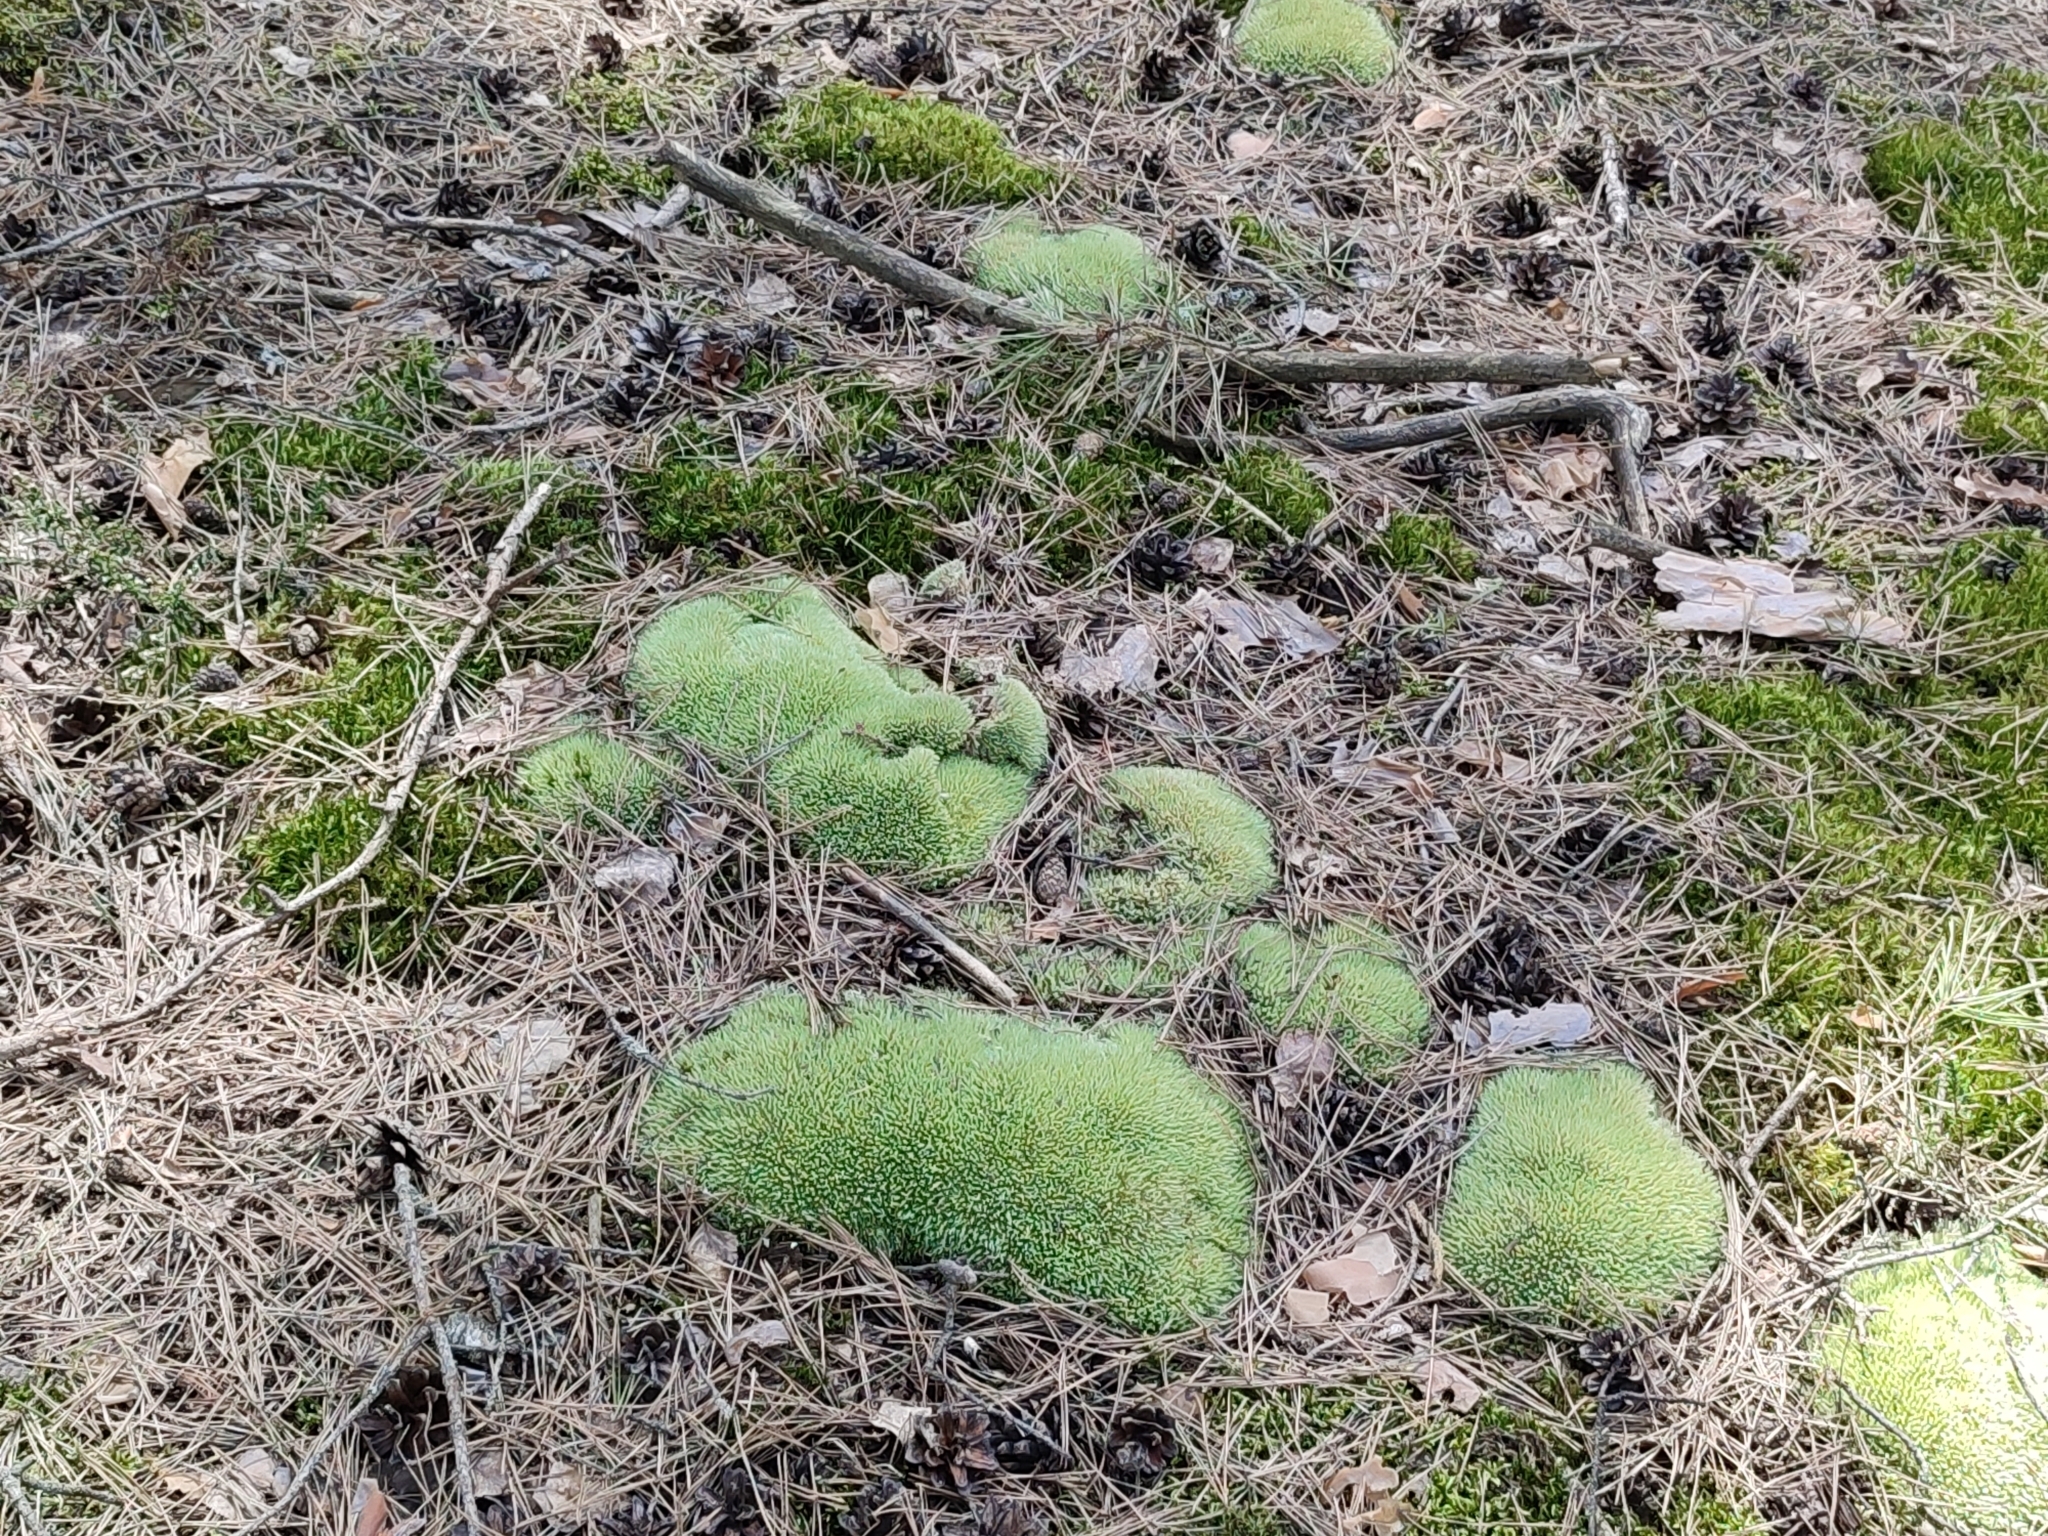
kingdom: Plantae
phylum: Bryophyta
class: Bryopsida
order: Dicranales
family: Leucobryaceae
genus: Leucobryum
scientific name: Leucobryum glaucum
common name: Large white-moss
